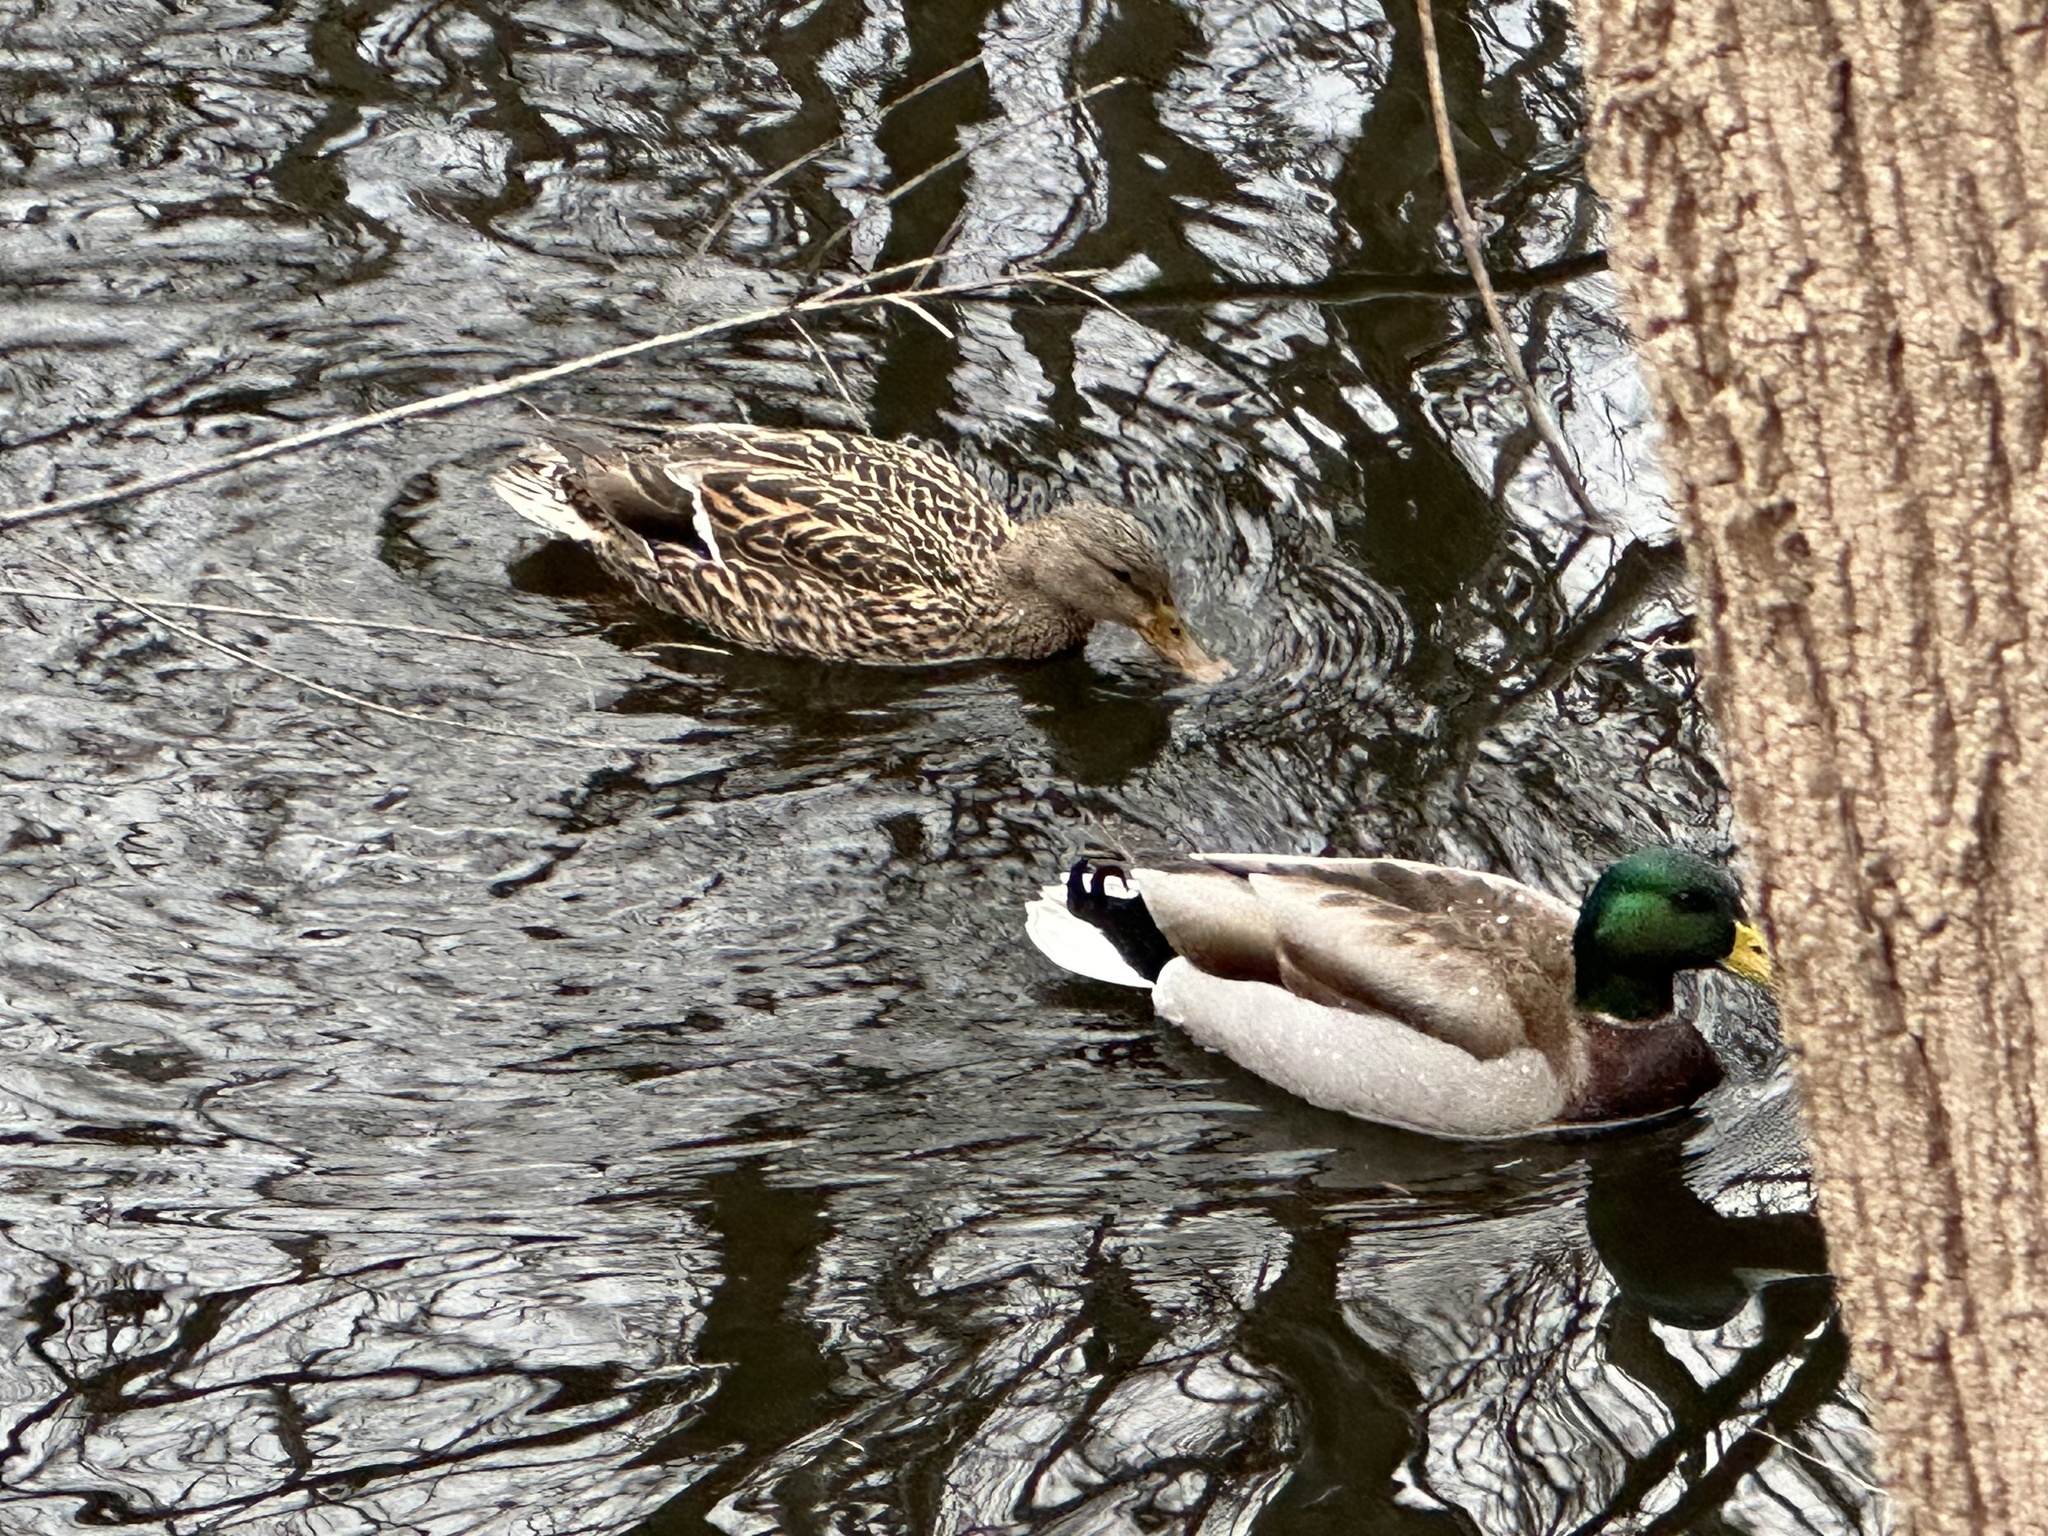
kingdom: Animalia
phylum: Chordata
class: Aves
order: Anseriformes
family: Anatidae
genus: Anas
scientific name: Anas platyrhynchos
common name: Mallard
